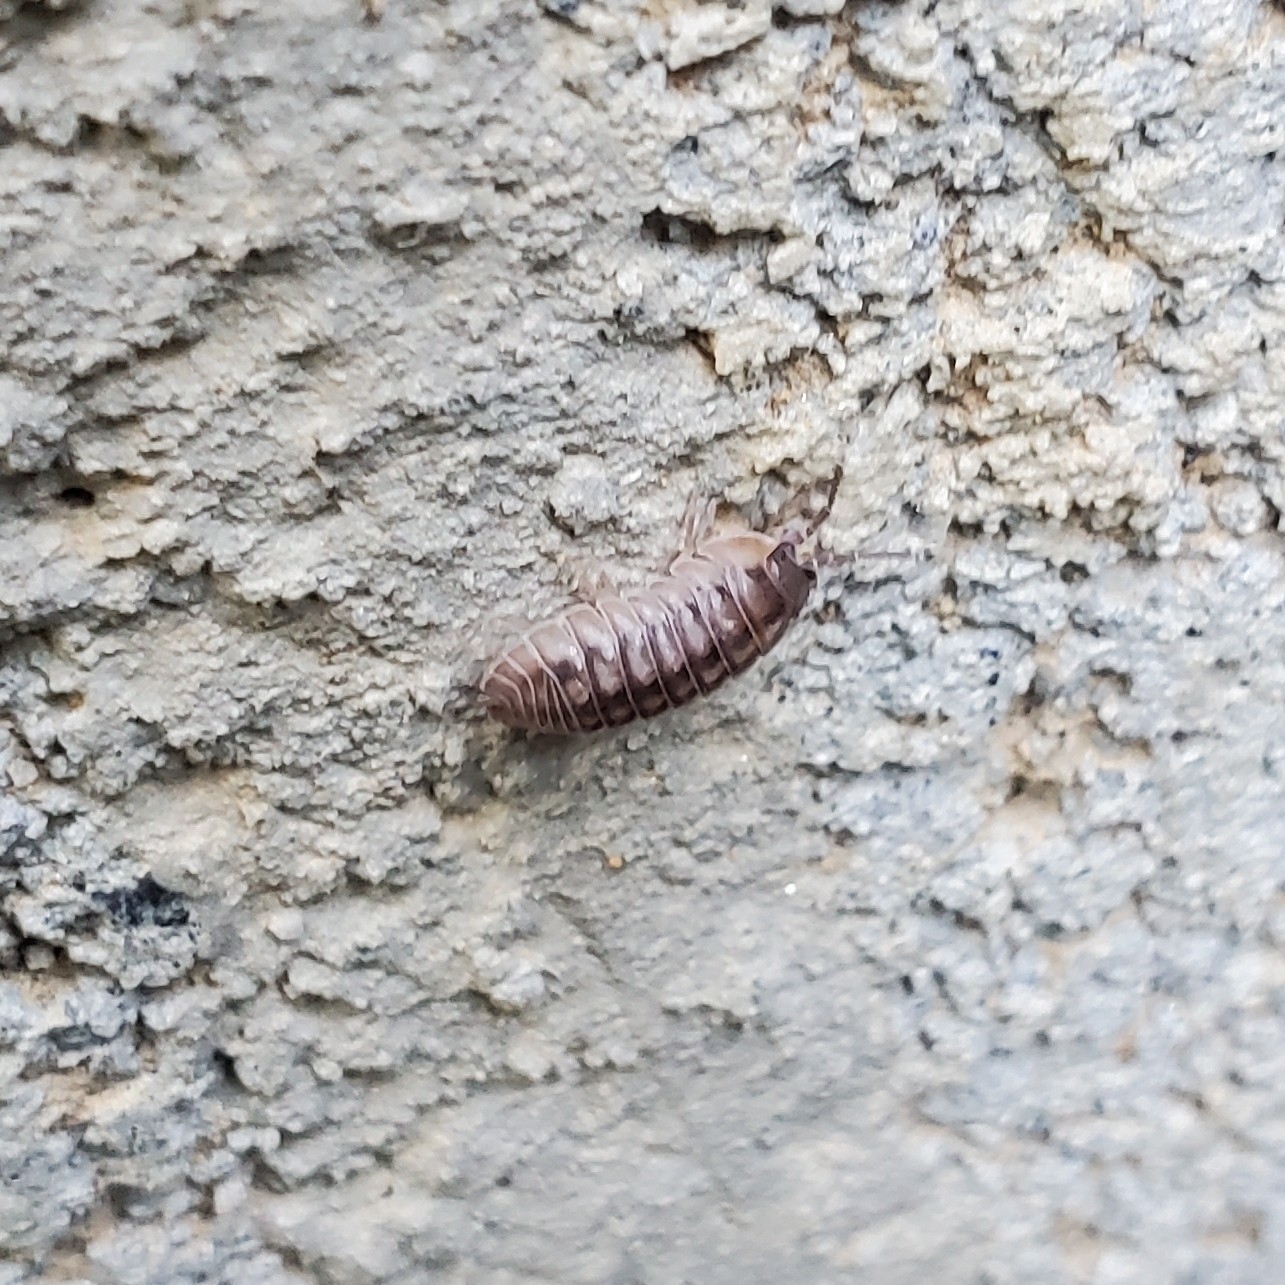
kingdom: Animalia
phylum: Arthropoda
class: Malacostraca
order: Isopoda
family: Armadillidiidae
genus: Armadillidium
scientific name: Armadillidium nasatum
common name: Isopod
